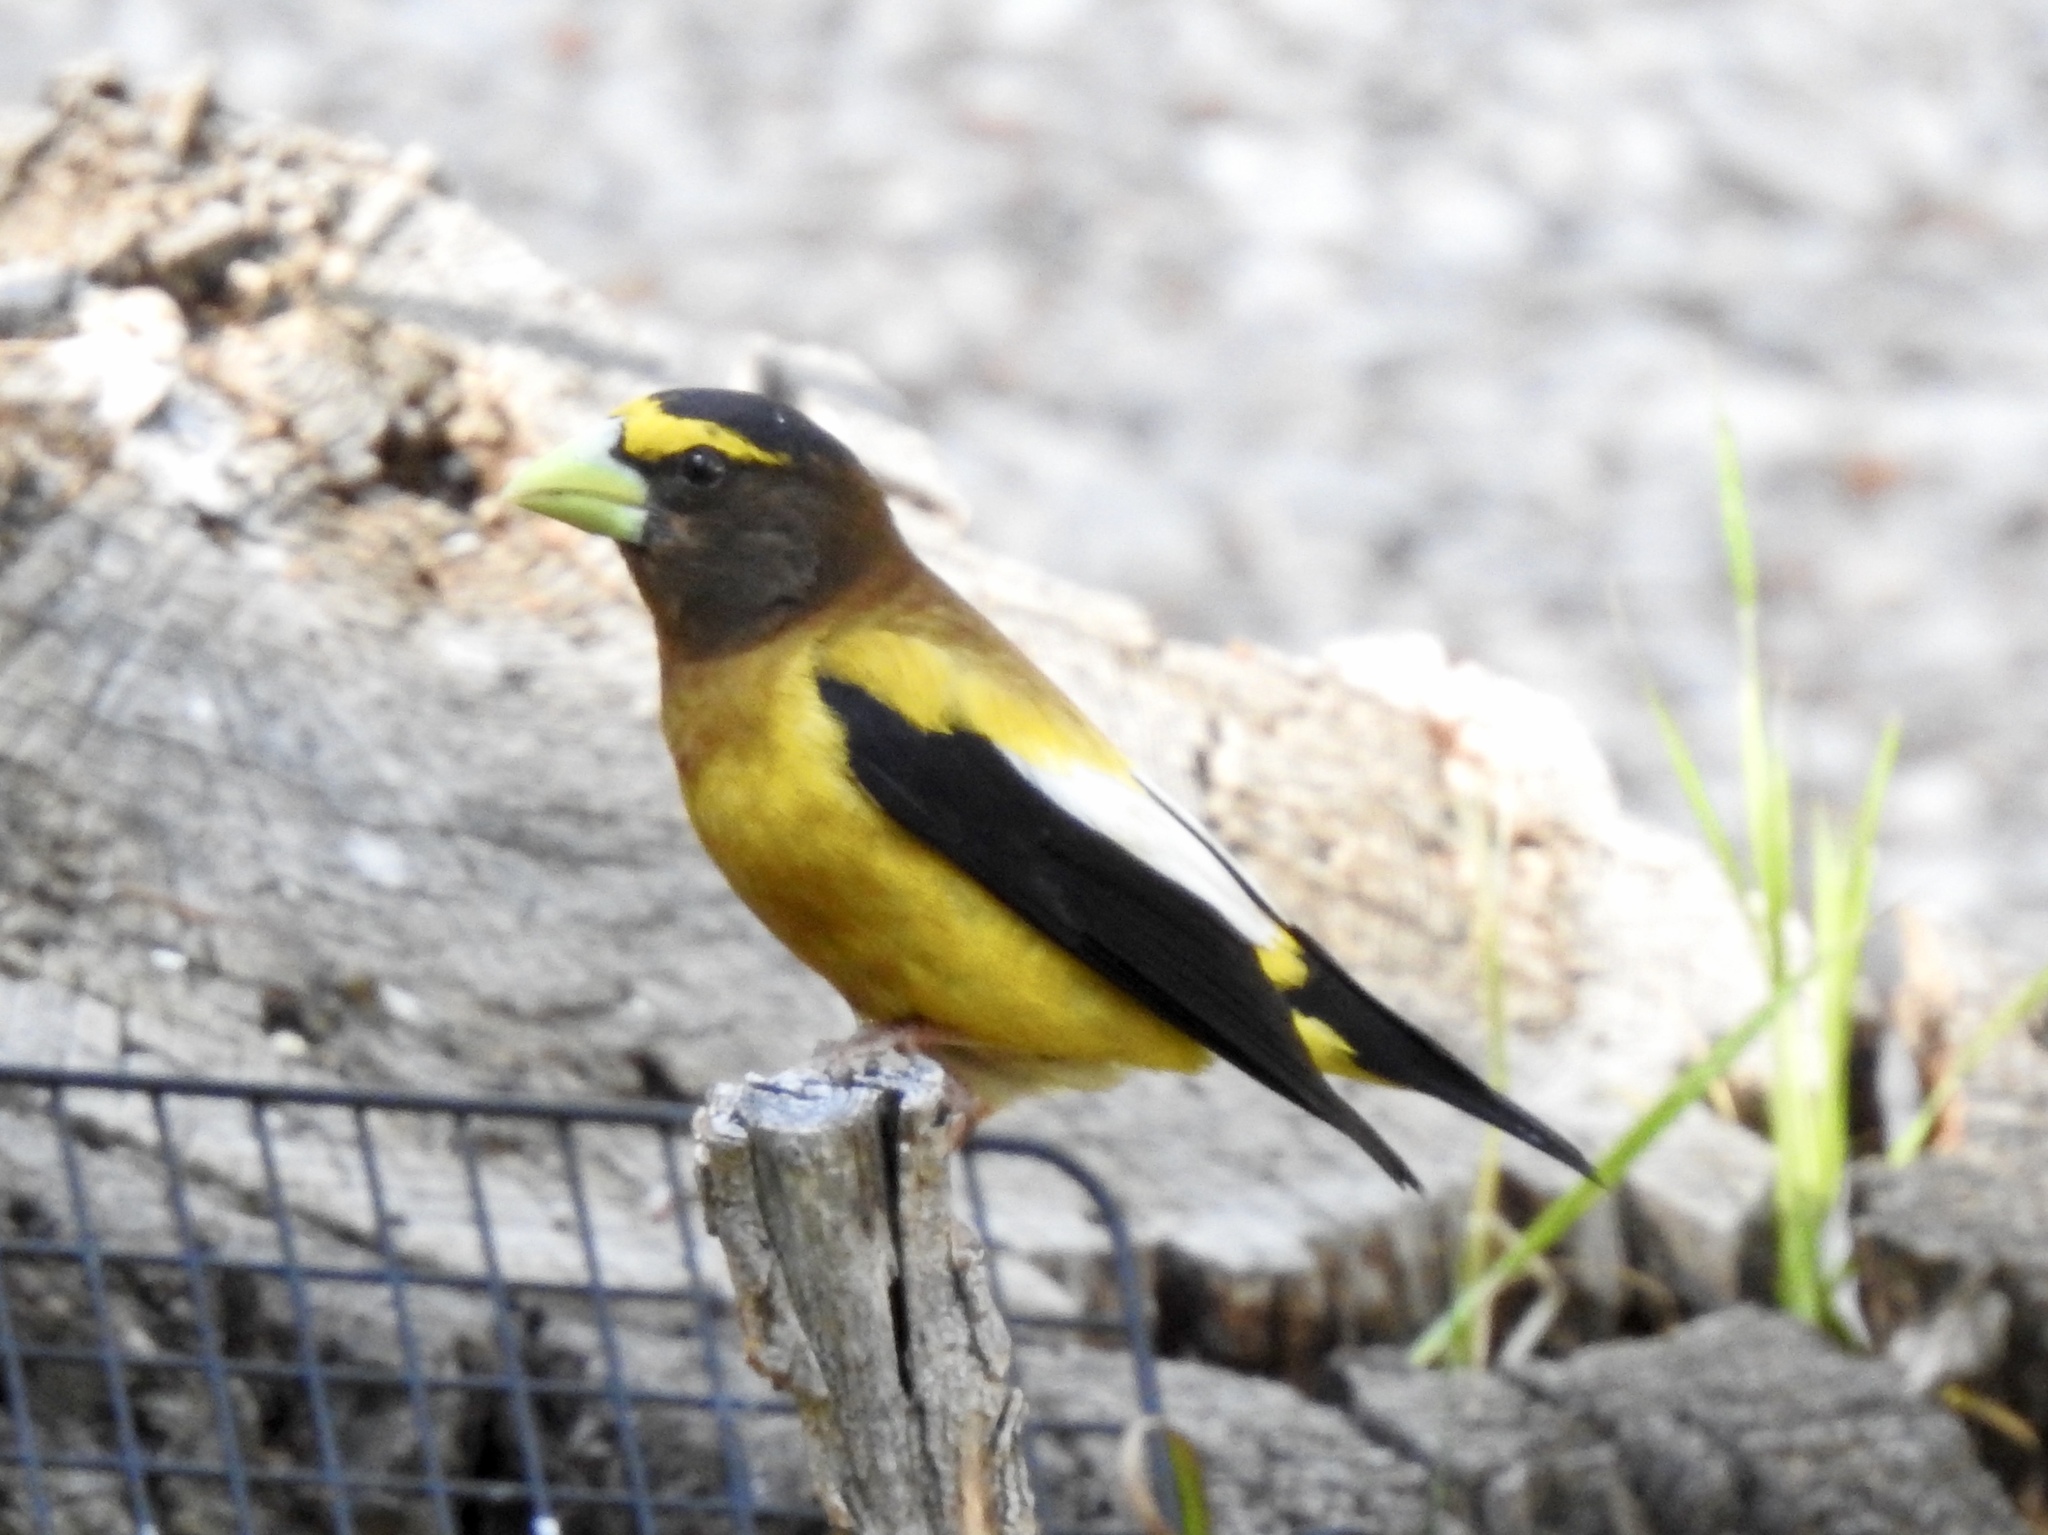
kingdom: Animalia
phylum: Chordata
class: Aves
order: Passeriformes
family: Fringillidae
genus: Hesperiphona
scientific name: Hesperiphona vespertina
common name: Evening grosbeak
